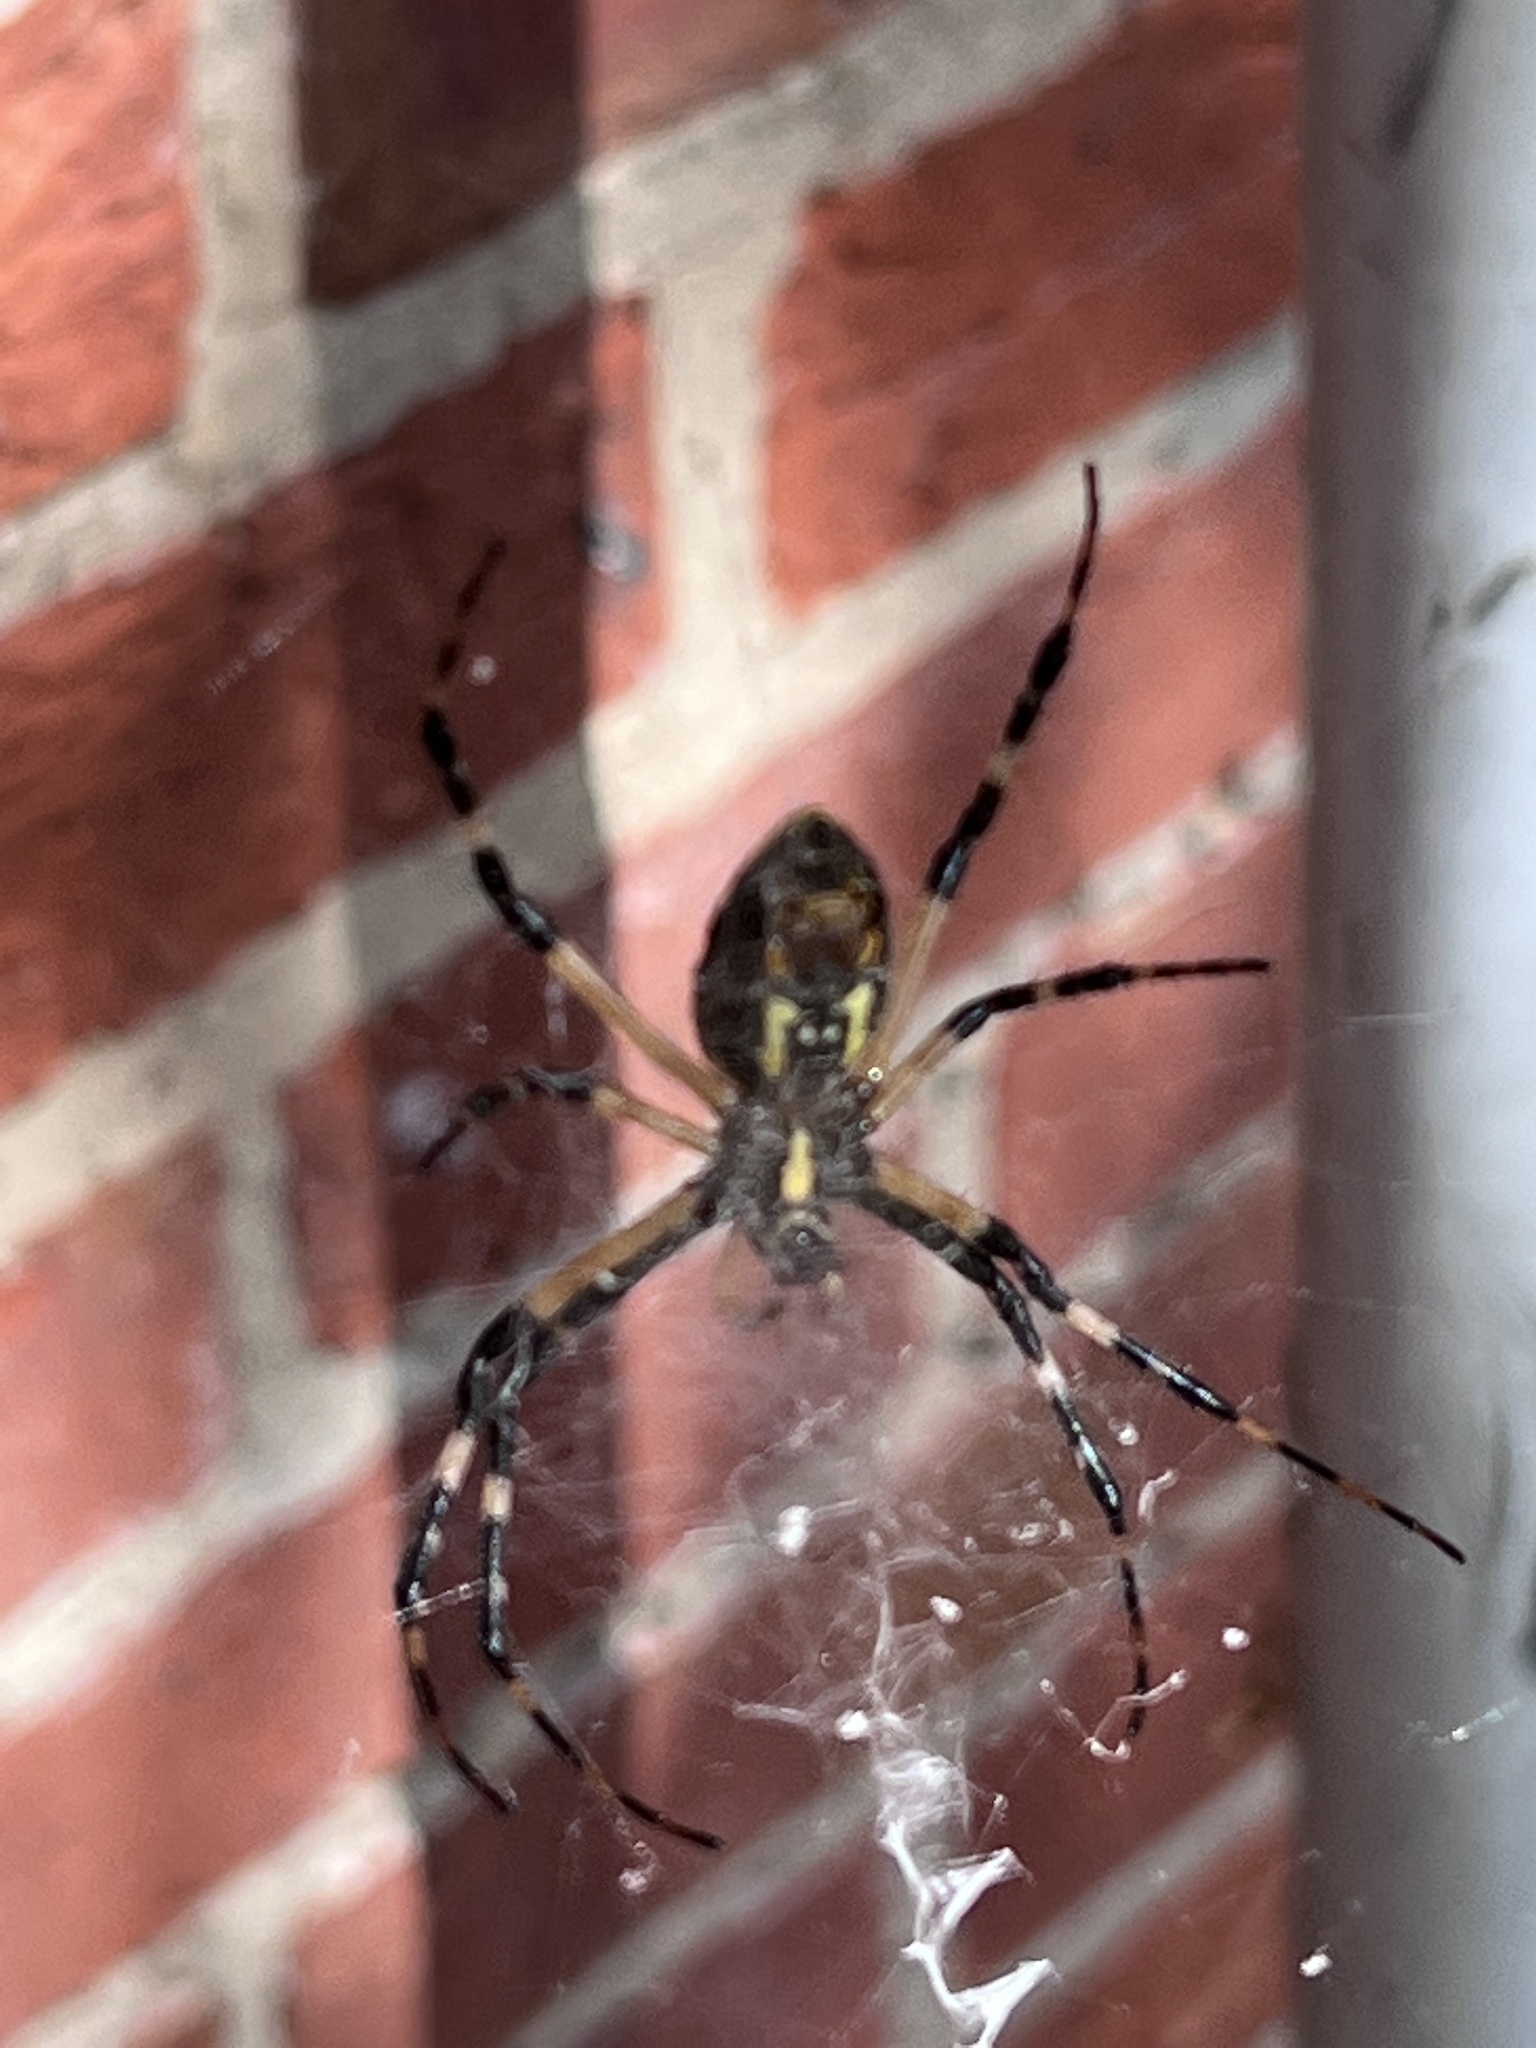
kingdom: Animalia
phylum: Arthropoda
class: Arachnida
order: Araneae
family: Araneidae
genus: Argiope
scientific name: Argiope aurantia
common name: Orb weavers
